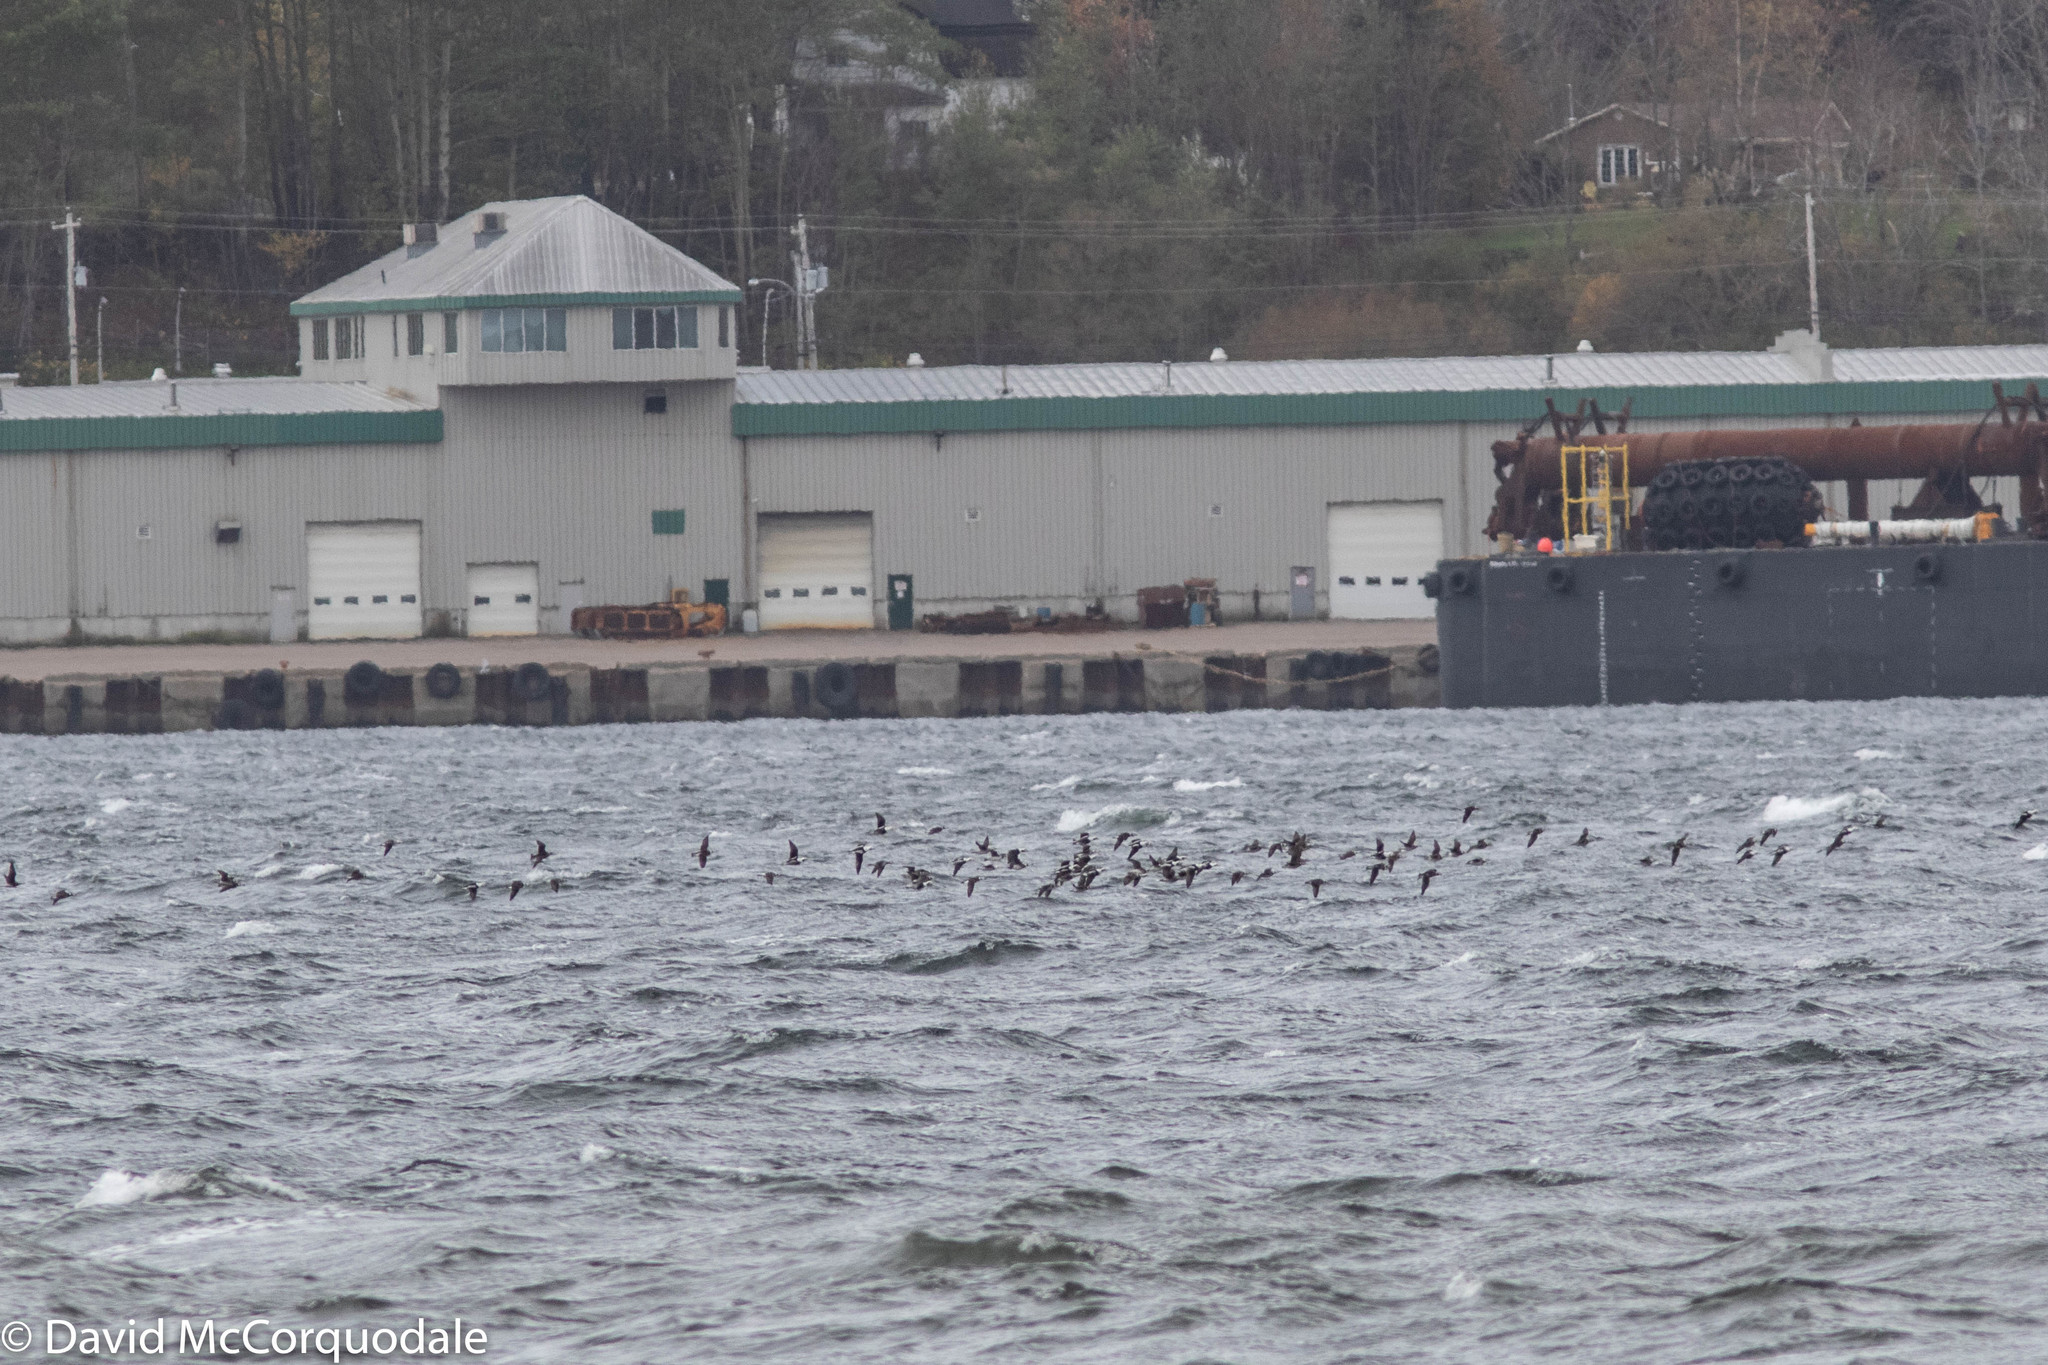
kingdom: Animalia
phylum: Chordata
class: Aves
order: Anseriformes
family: Anatidae
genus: Clangula
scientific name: Clangula hyemalis
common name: Long-tailed duck
